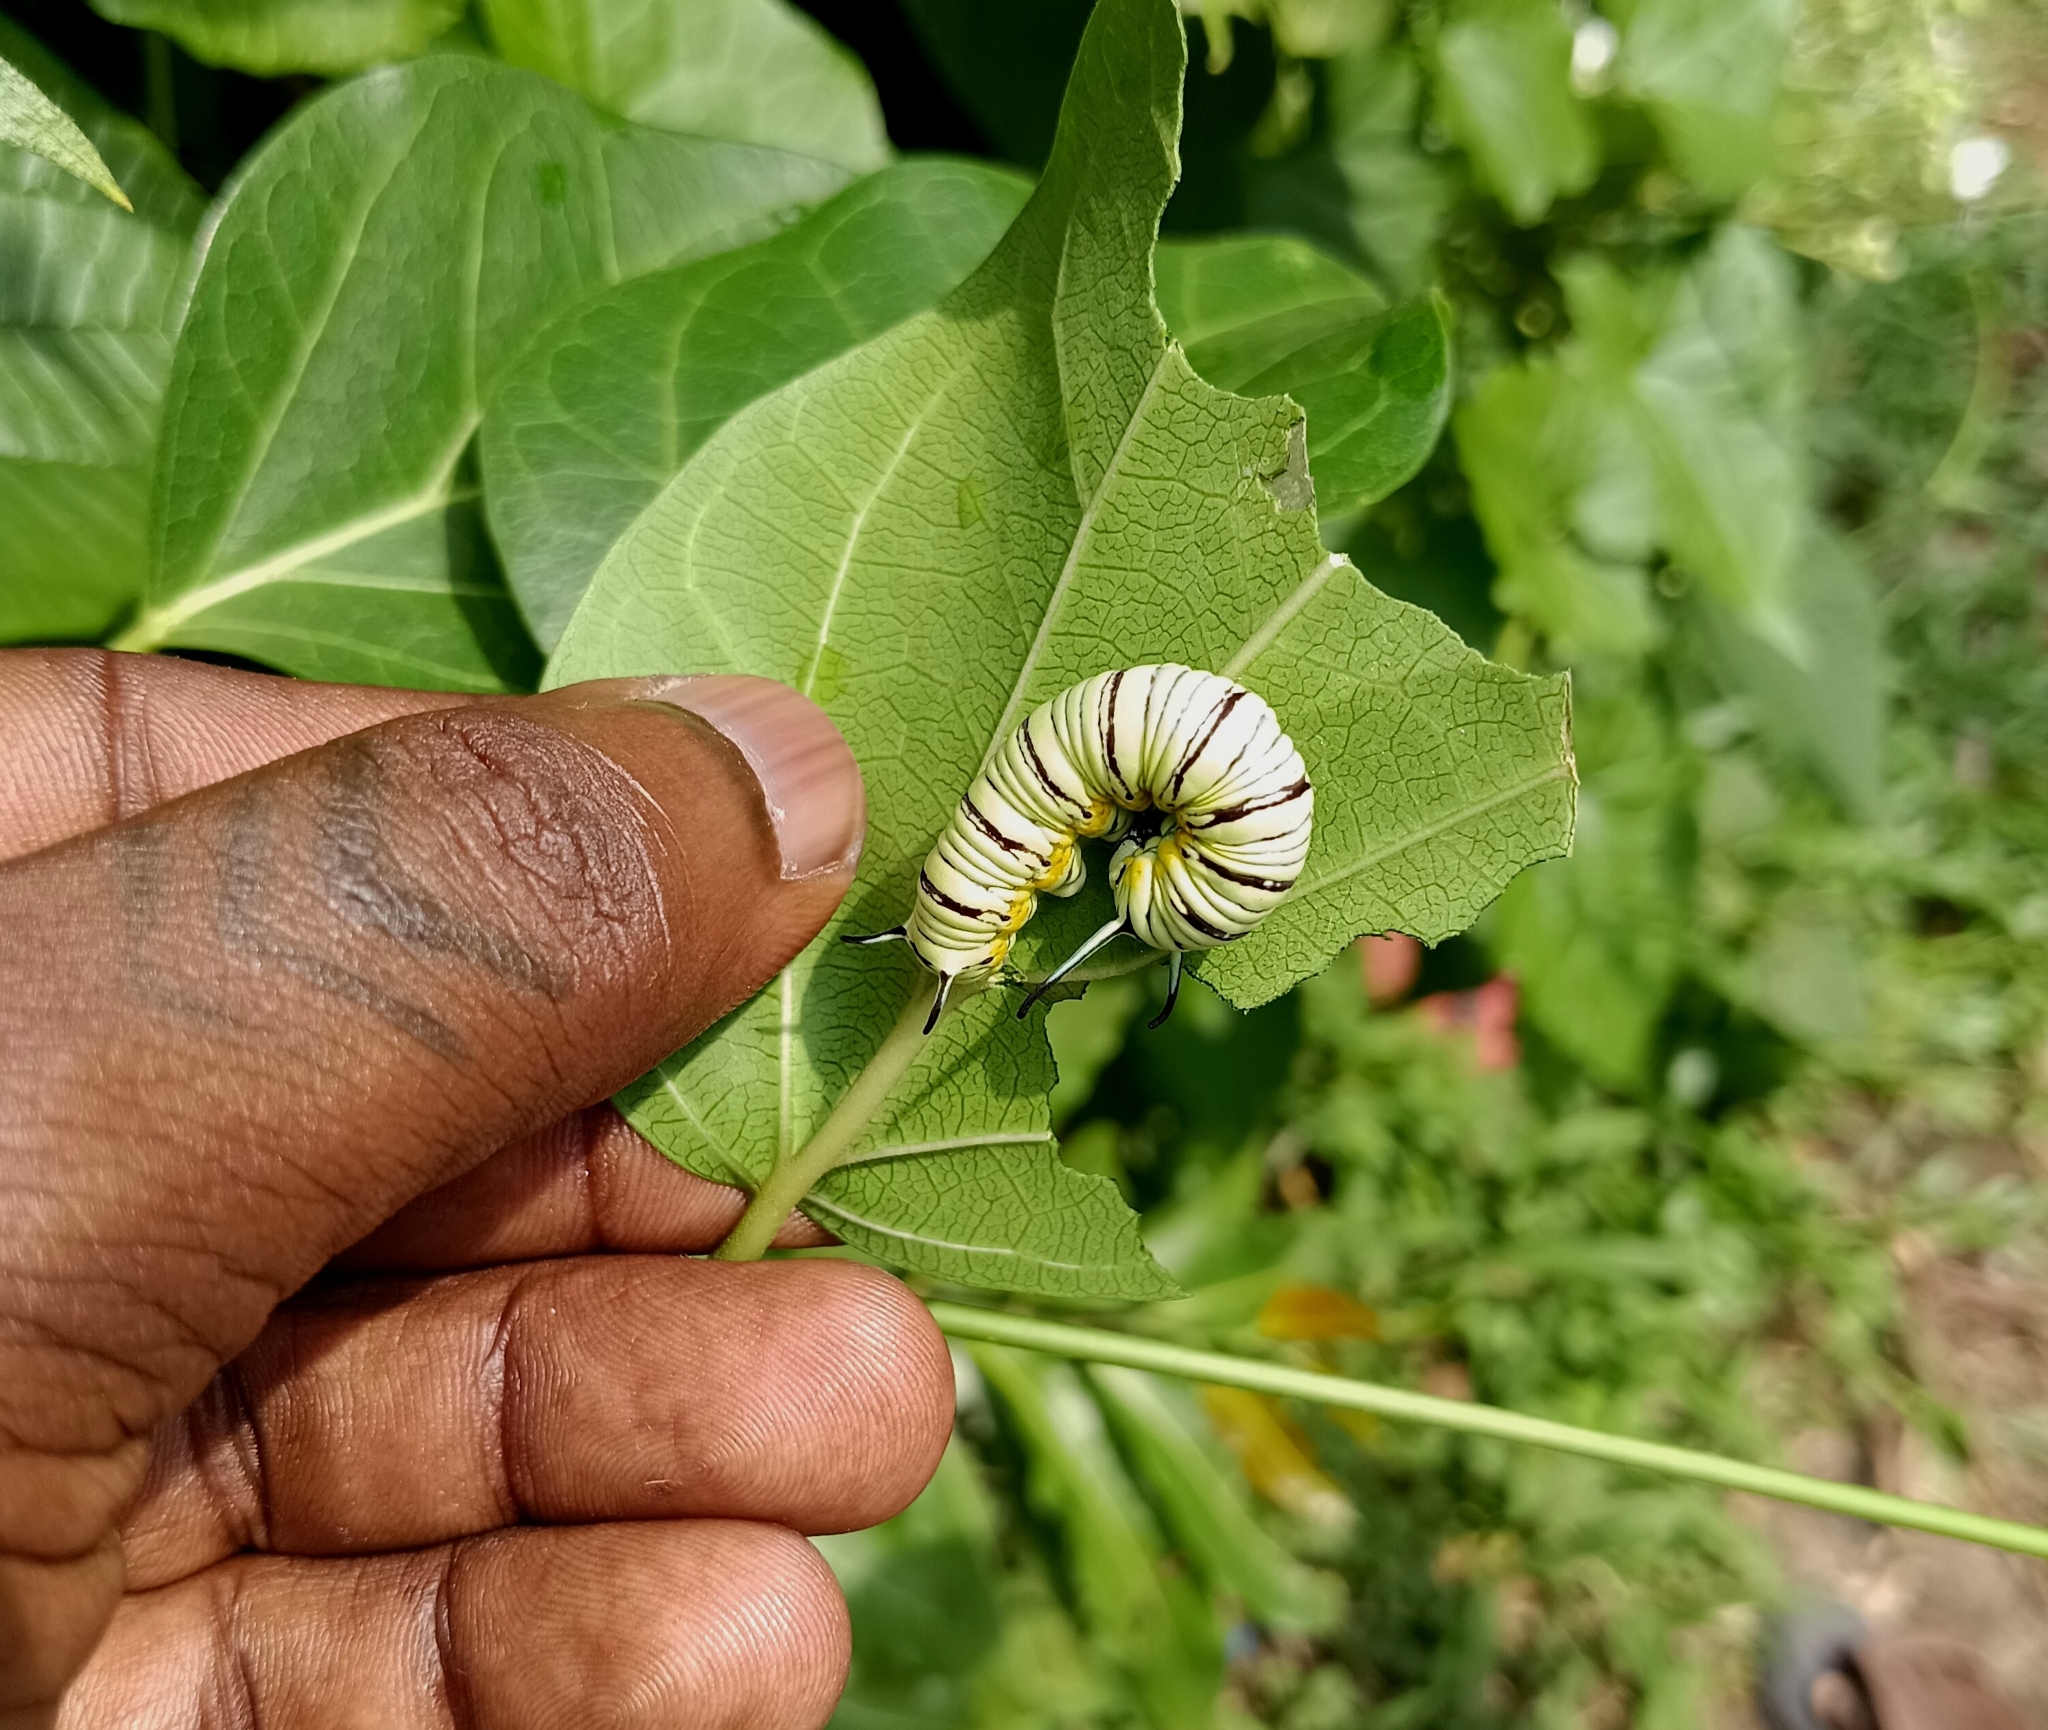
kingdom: Animalia
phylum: Arthropoda
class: Insecta
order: Lepidoptera
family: Nymphalidae
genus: Tirumala
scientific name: Tirumala limniace
